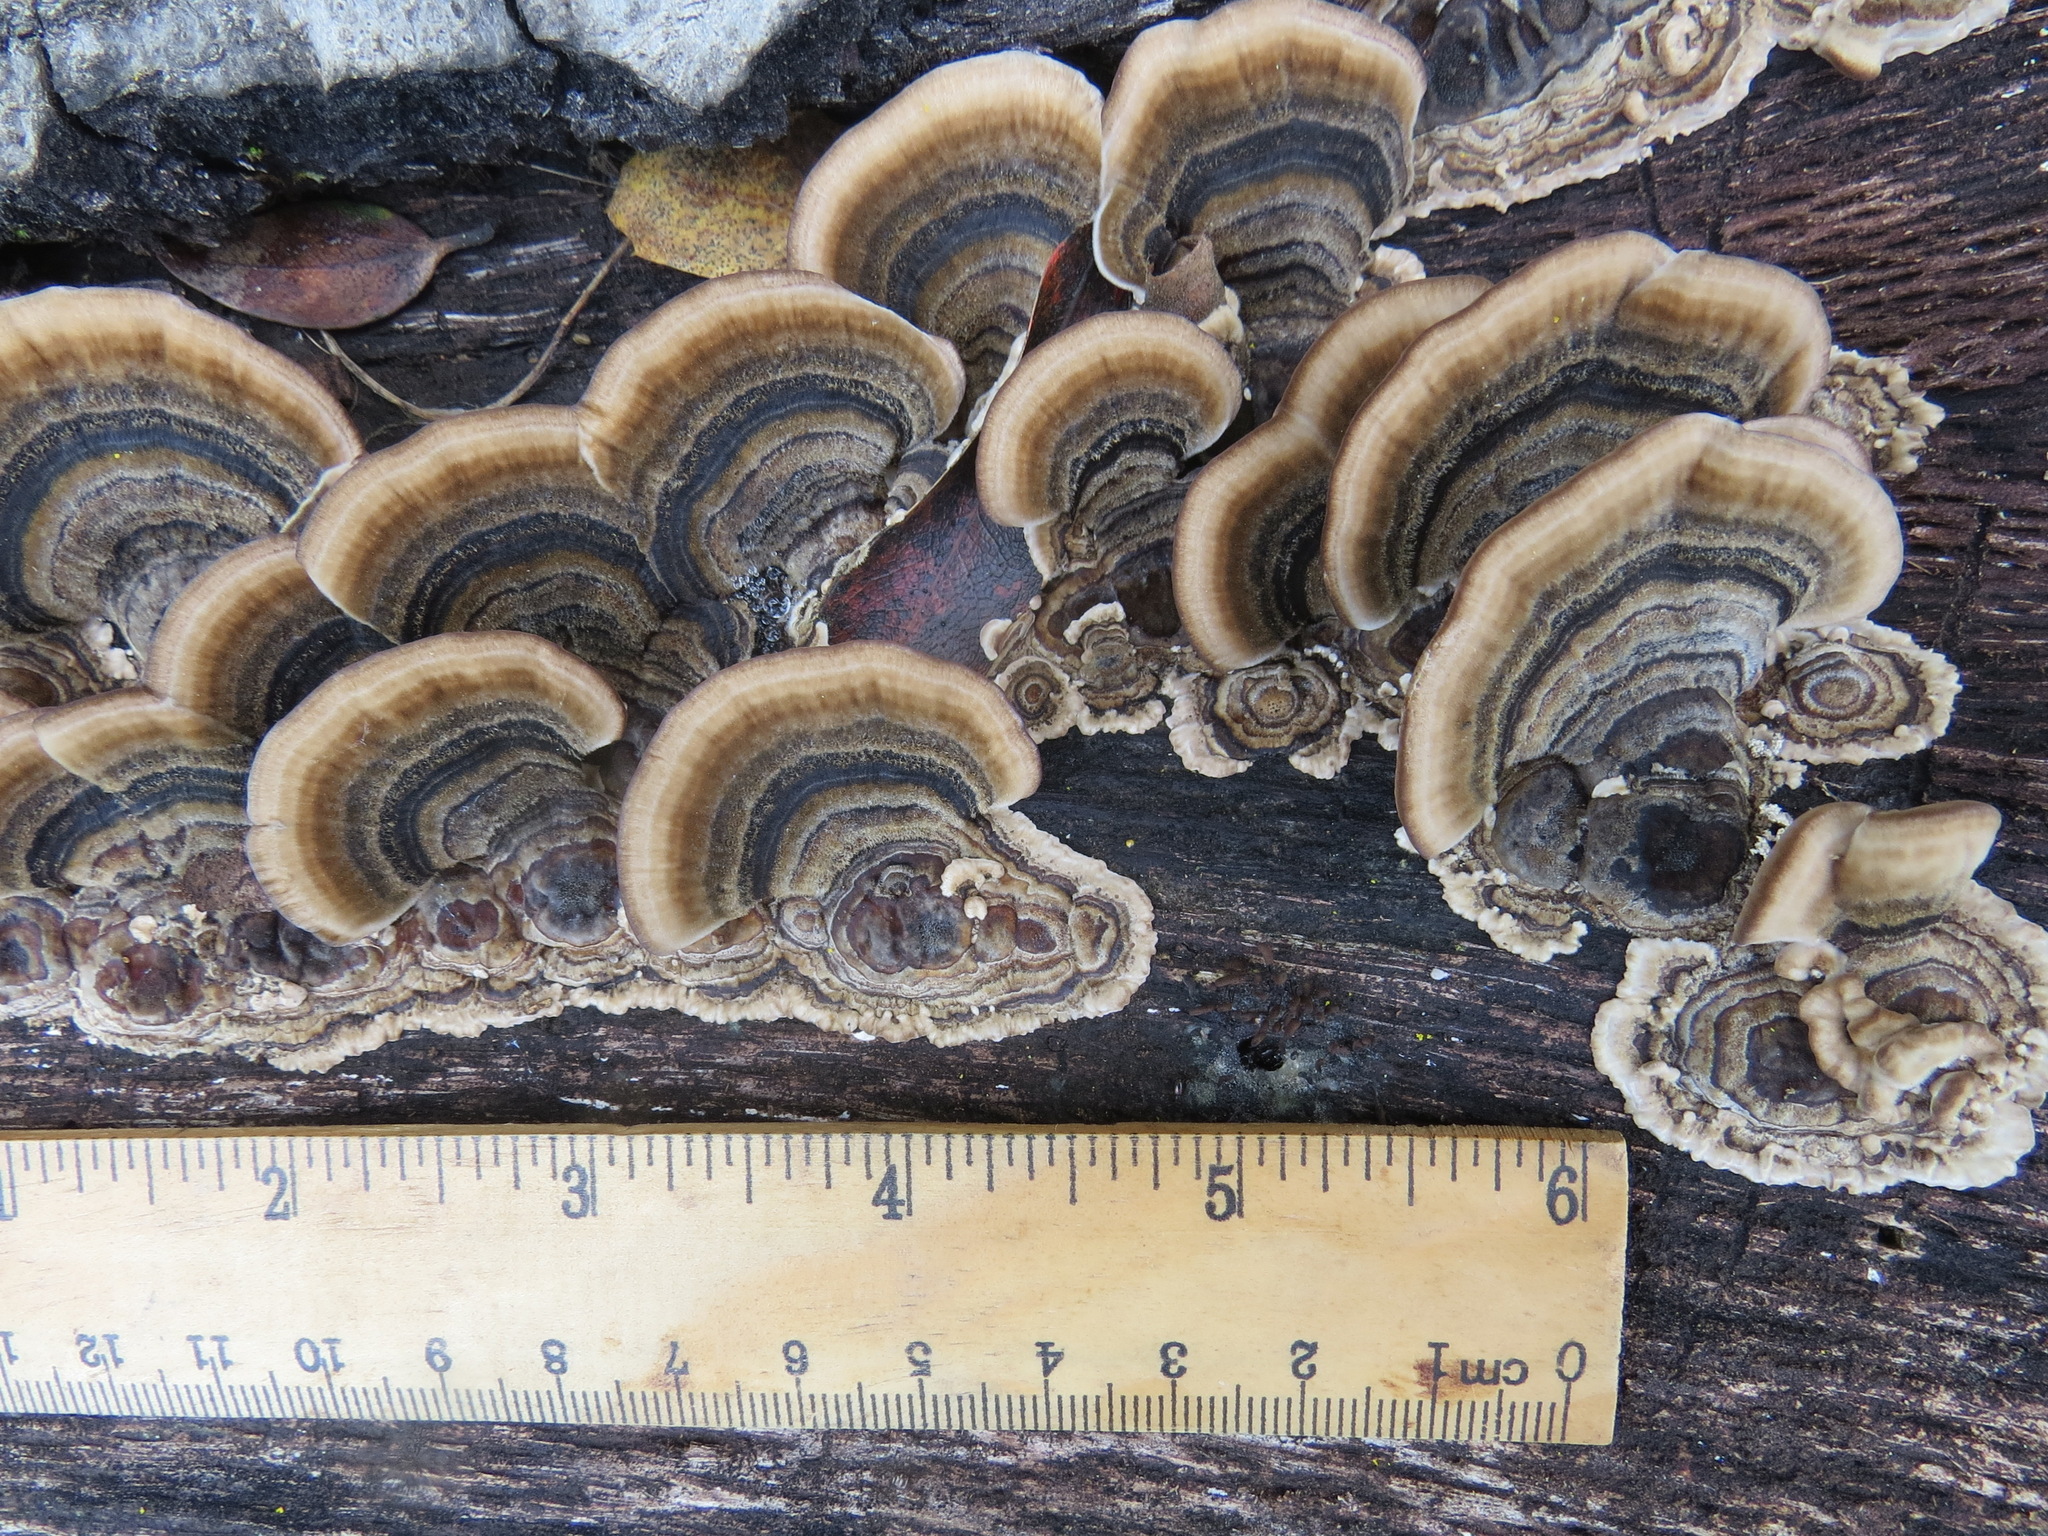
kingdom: Fungi
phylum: Basidiomycota
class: Agaricomycetes
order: Polyporales
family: Polyporaceae
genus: Trametes
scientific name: Trametes versicolor
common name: Turkeytail
